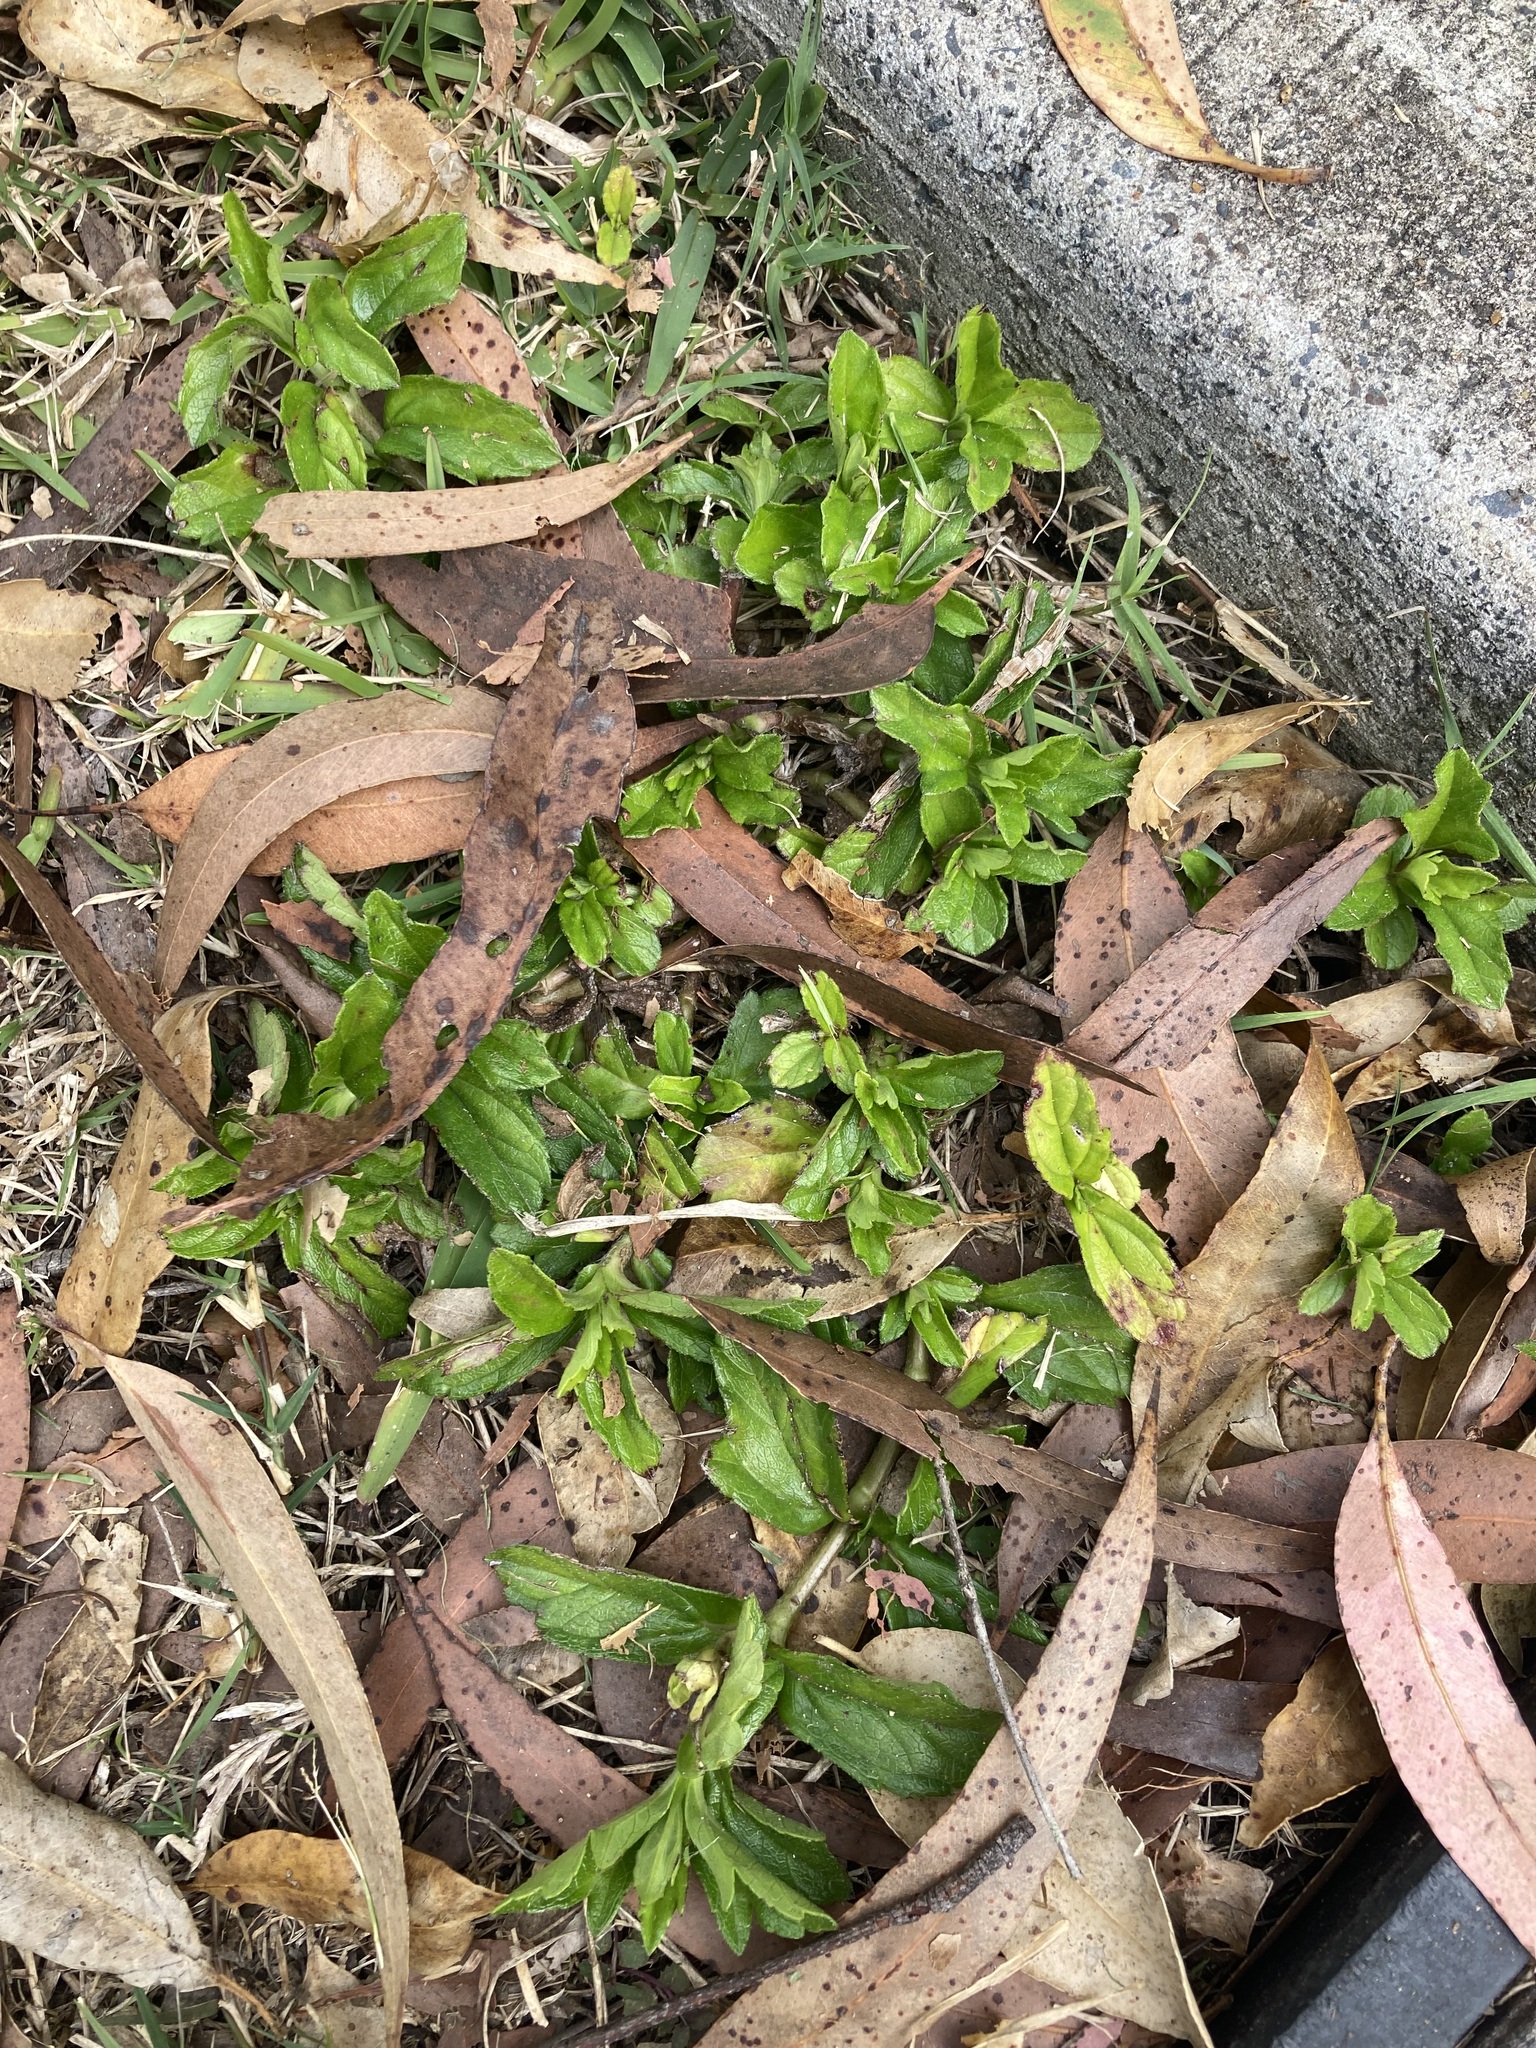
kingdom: Plantae
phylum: Tracheophyta
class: Magnoliopsida
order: Asterales
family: Asteraceae
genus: Sphagneticola
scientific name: Sphagneticola trilobata
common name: Bay biscayne creeping-oxeye
